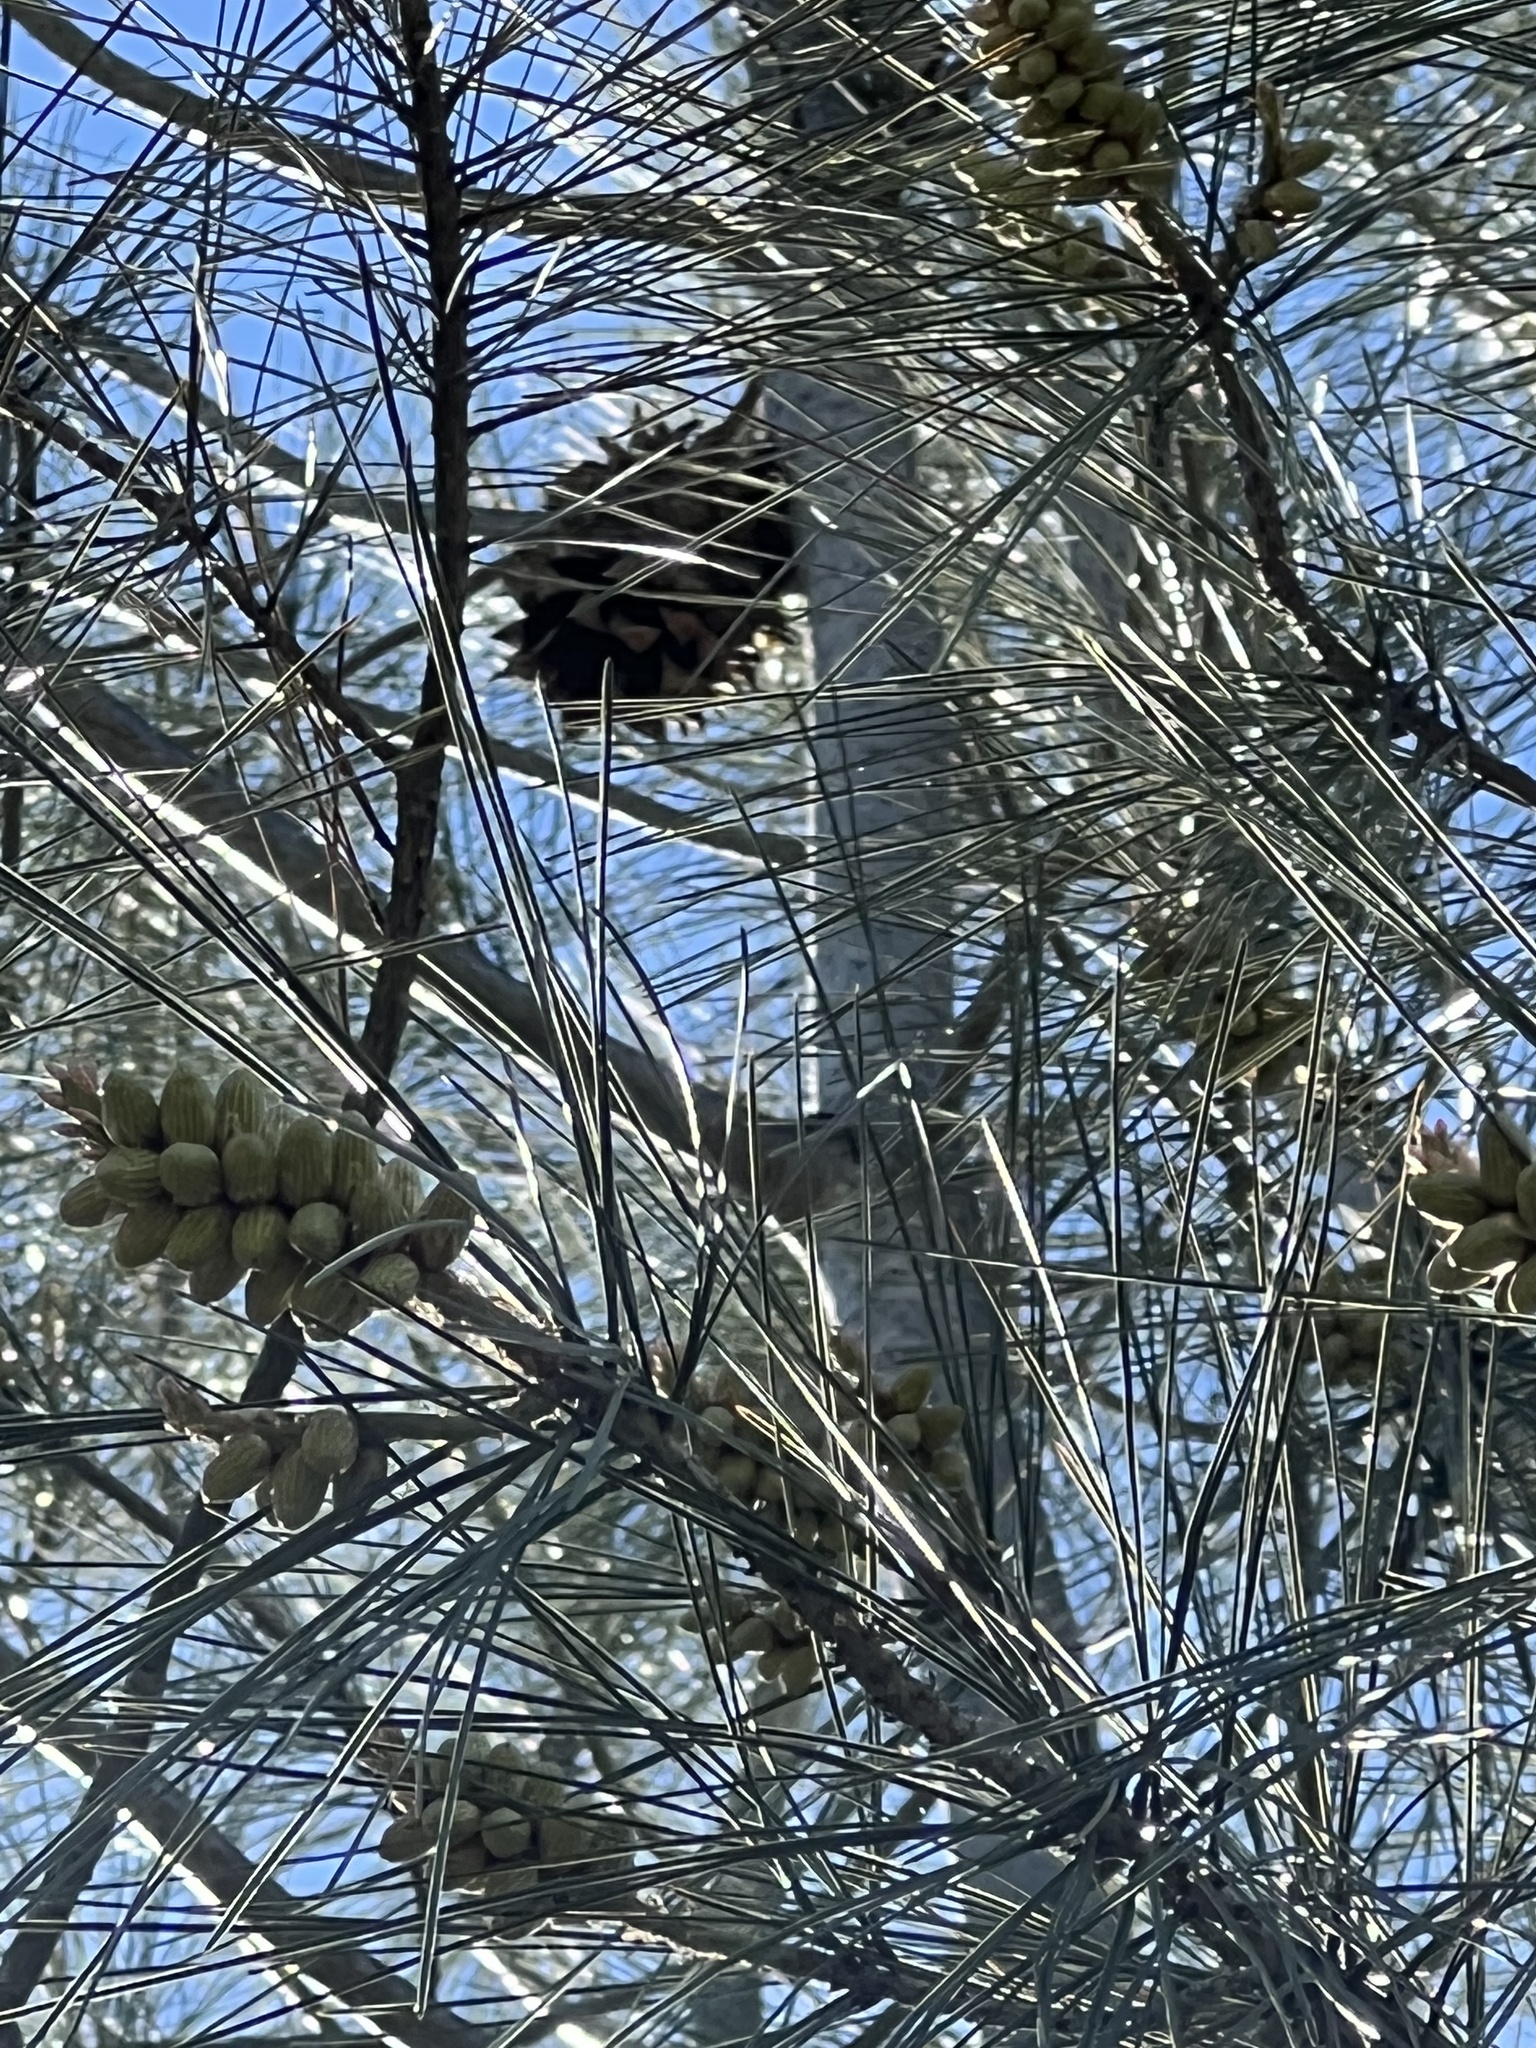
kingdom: Plantae
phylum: Tracheophyta
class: Pinopsida
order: Pinales
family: Pinaceae
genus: Pinus
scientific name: Pinus sabiniana
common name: Bull pine
